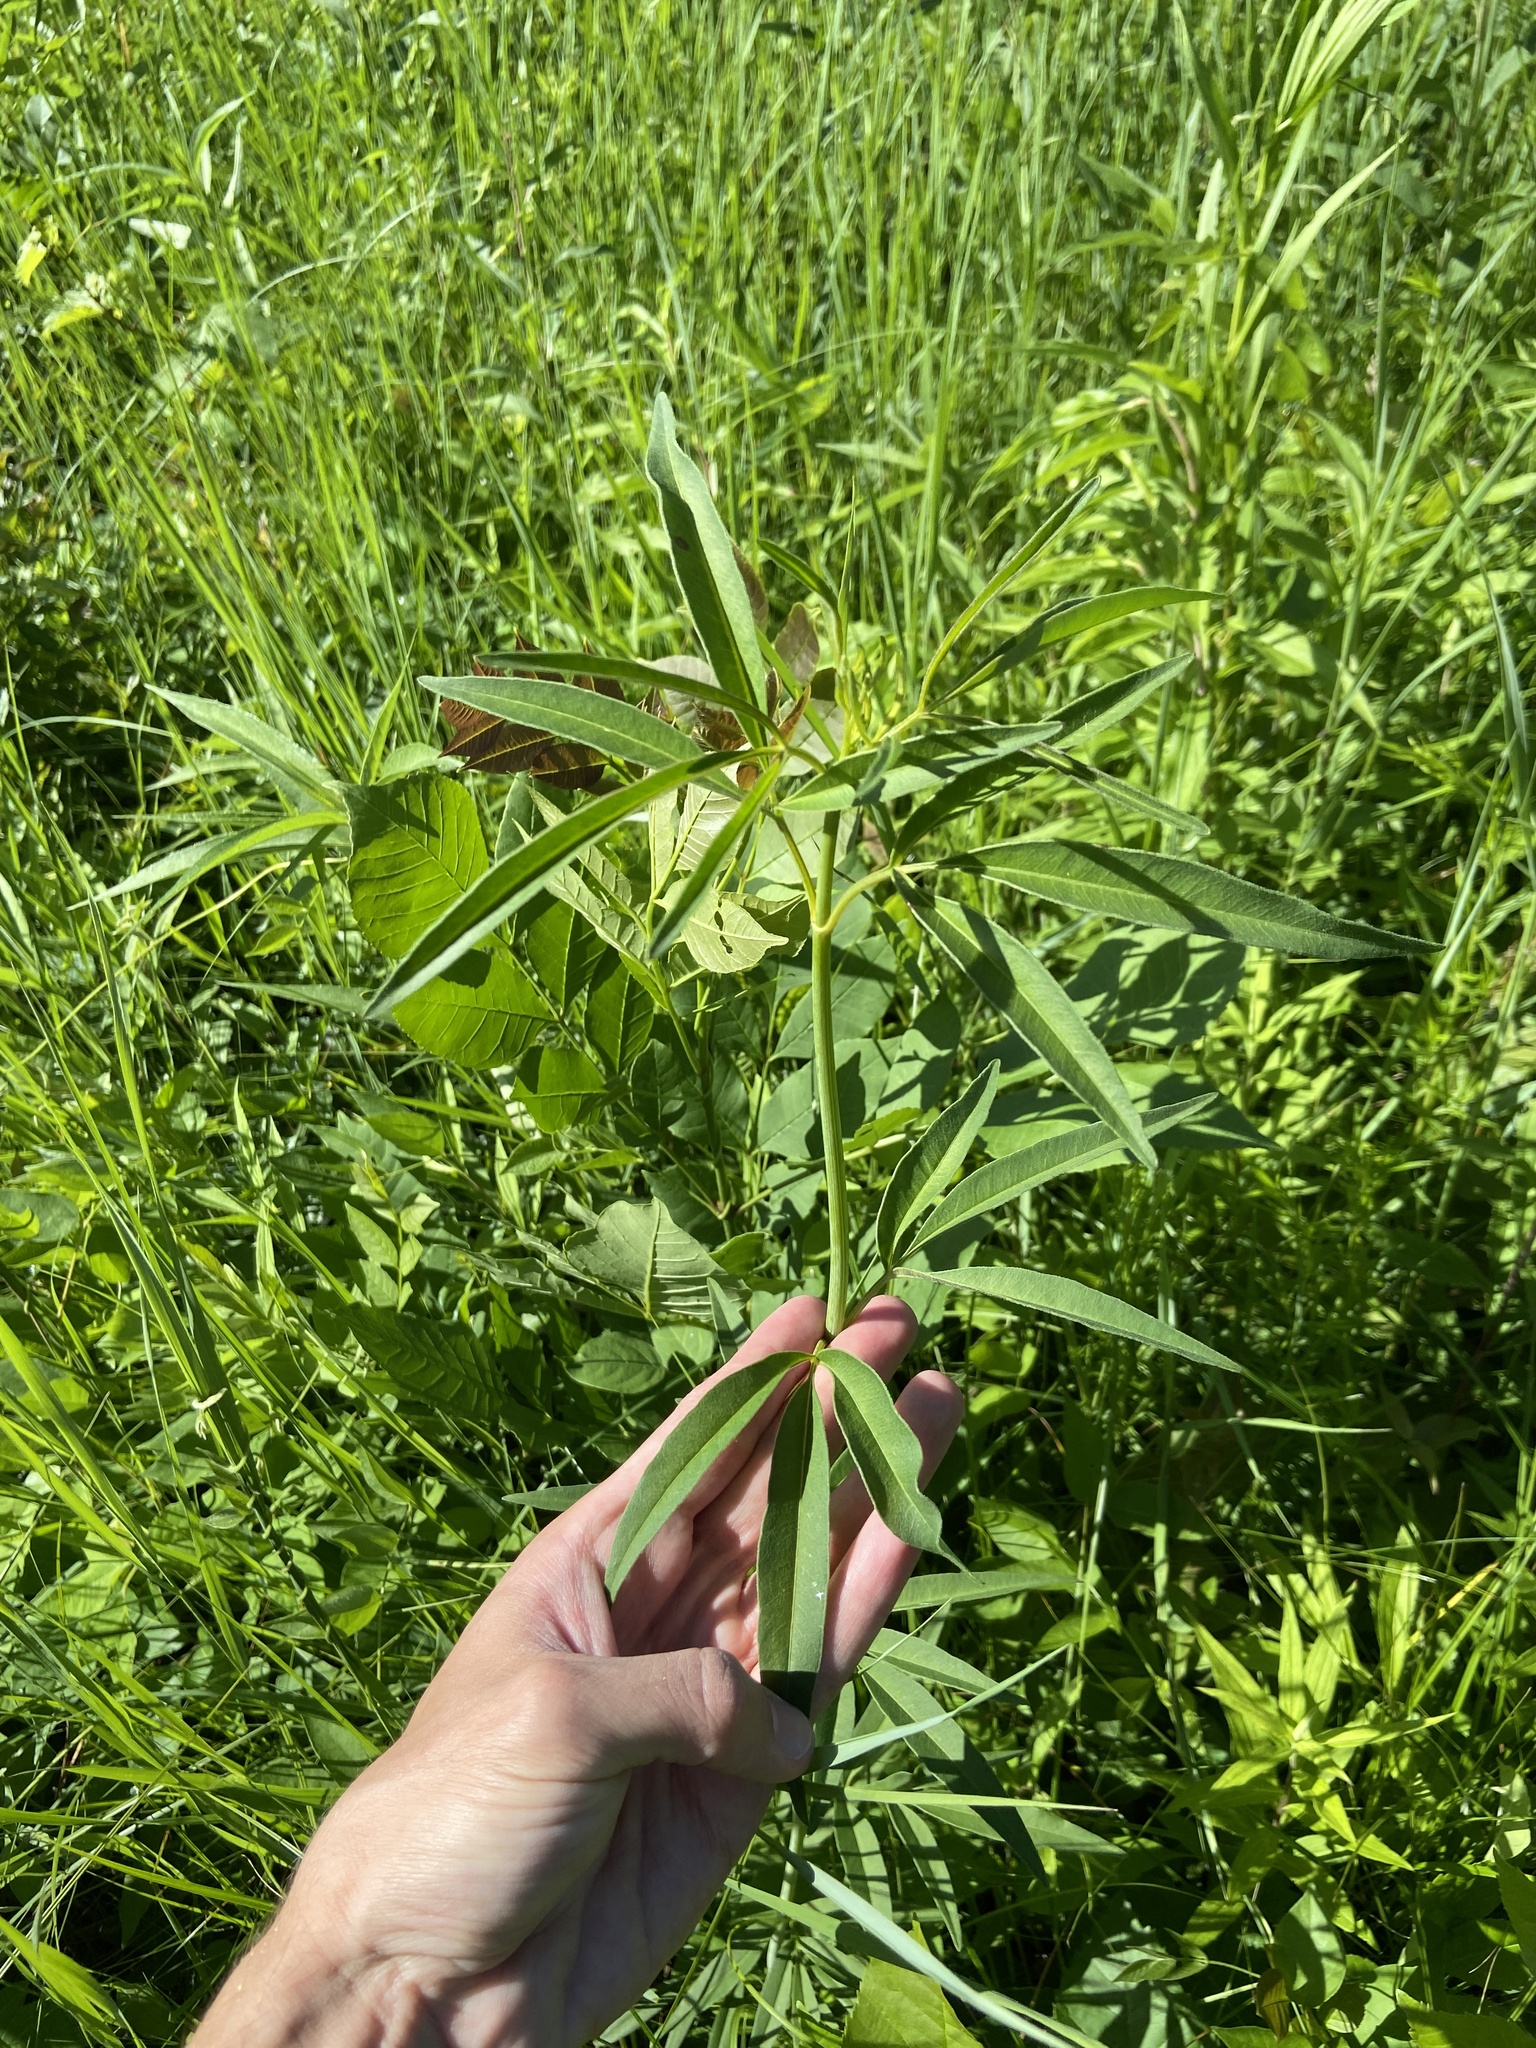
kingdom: Plantae
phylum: Tracheophyta
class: Magnoliopsida
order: Asterales
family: Asteraceae
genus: Coreopsis
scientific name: Coreopsis tripteris
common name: Tall coreopsis
